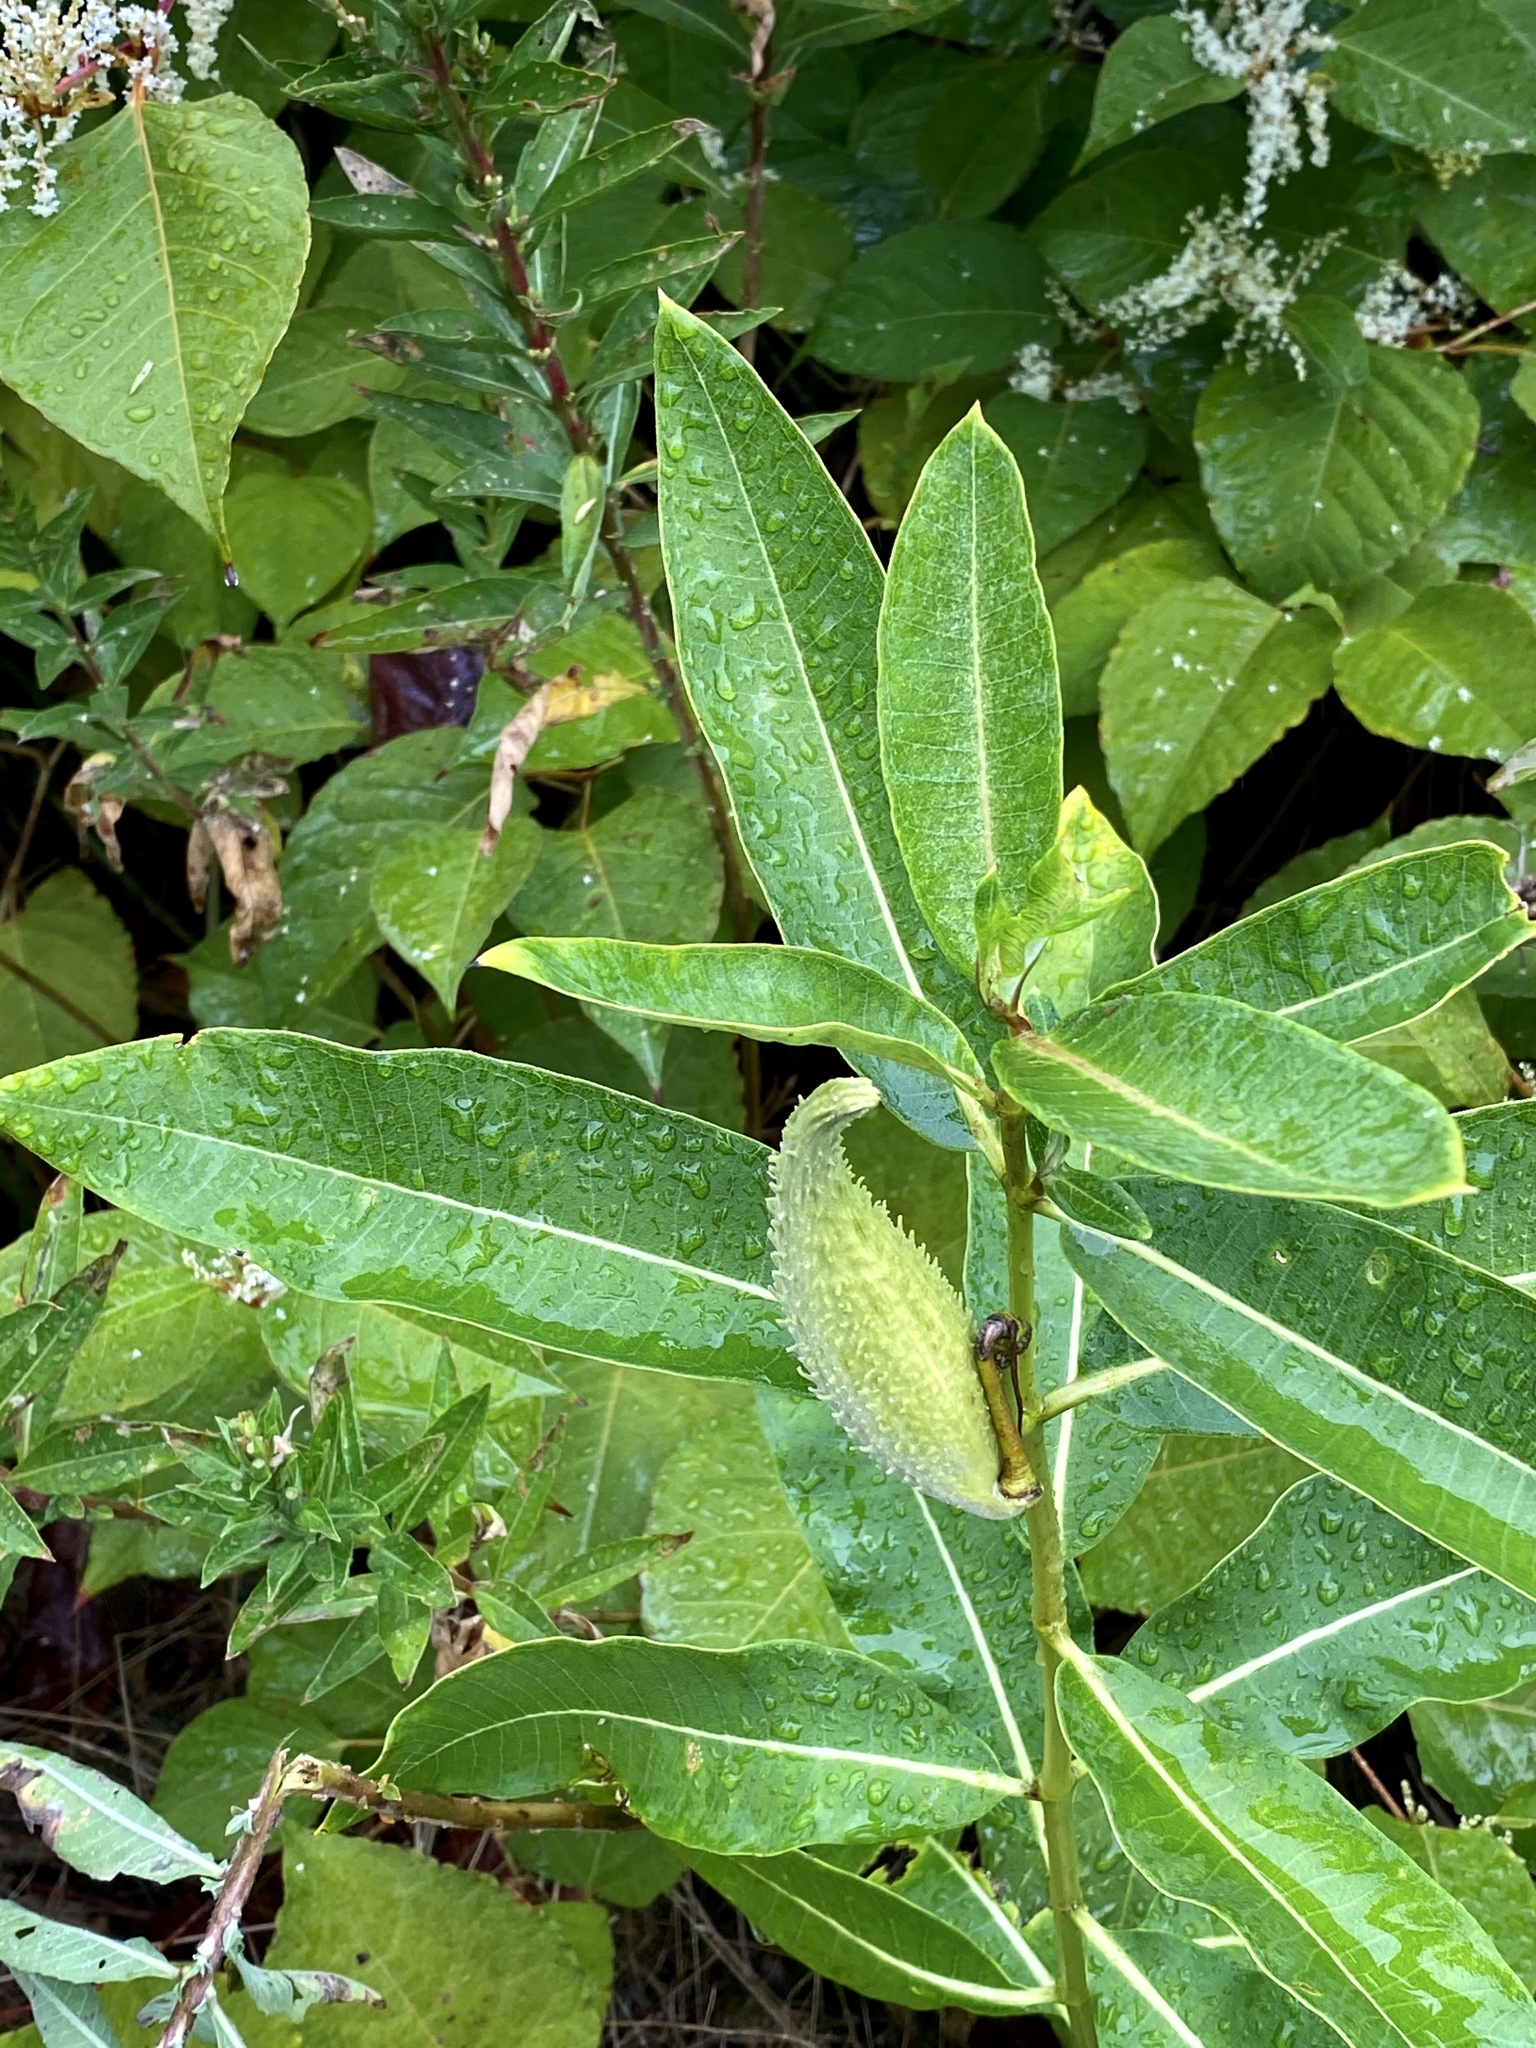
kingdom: Plantae
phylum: Tracheophyta
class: Magnoliopsida
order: Gentianales
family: Apocynaceae
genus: Asclepias
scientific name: Asclepias syriaca
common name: Common milkweed
